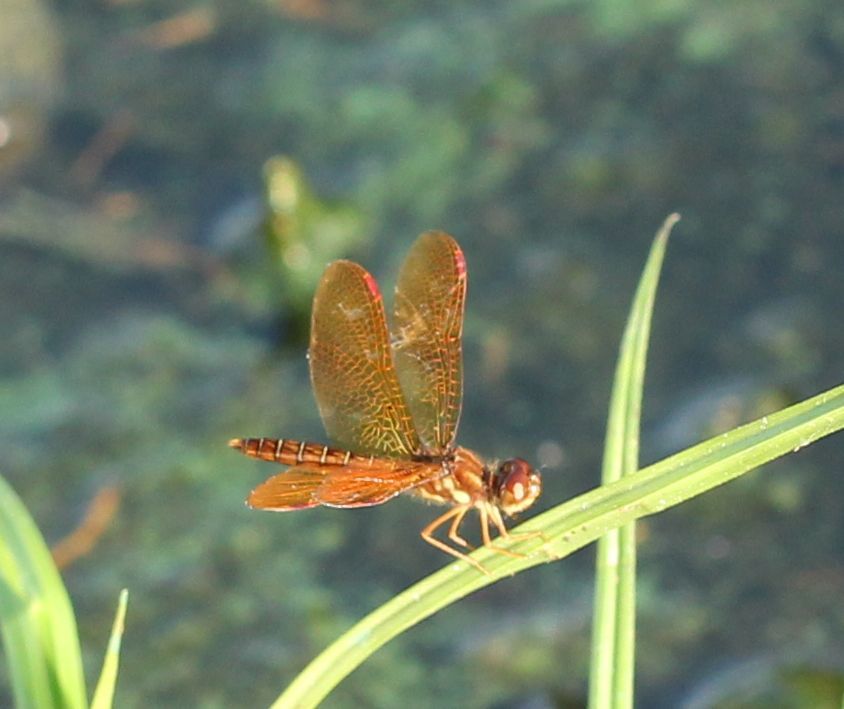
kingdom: Animalia
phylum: Arthropoda
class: Insecta
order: Odonata
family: Libellulidae
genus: Perithemis
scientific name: Perithemis tenera
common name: Eastern amberwing
